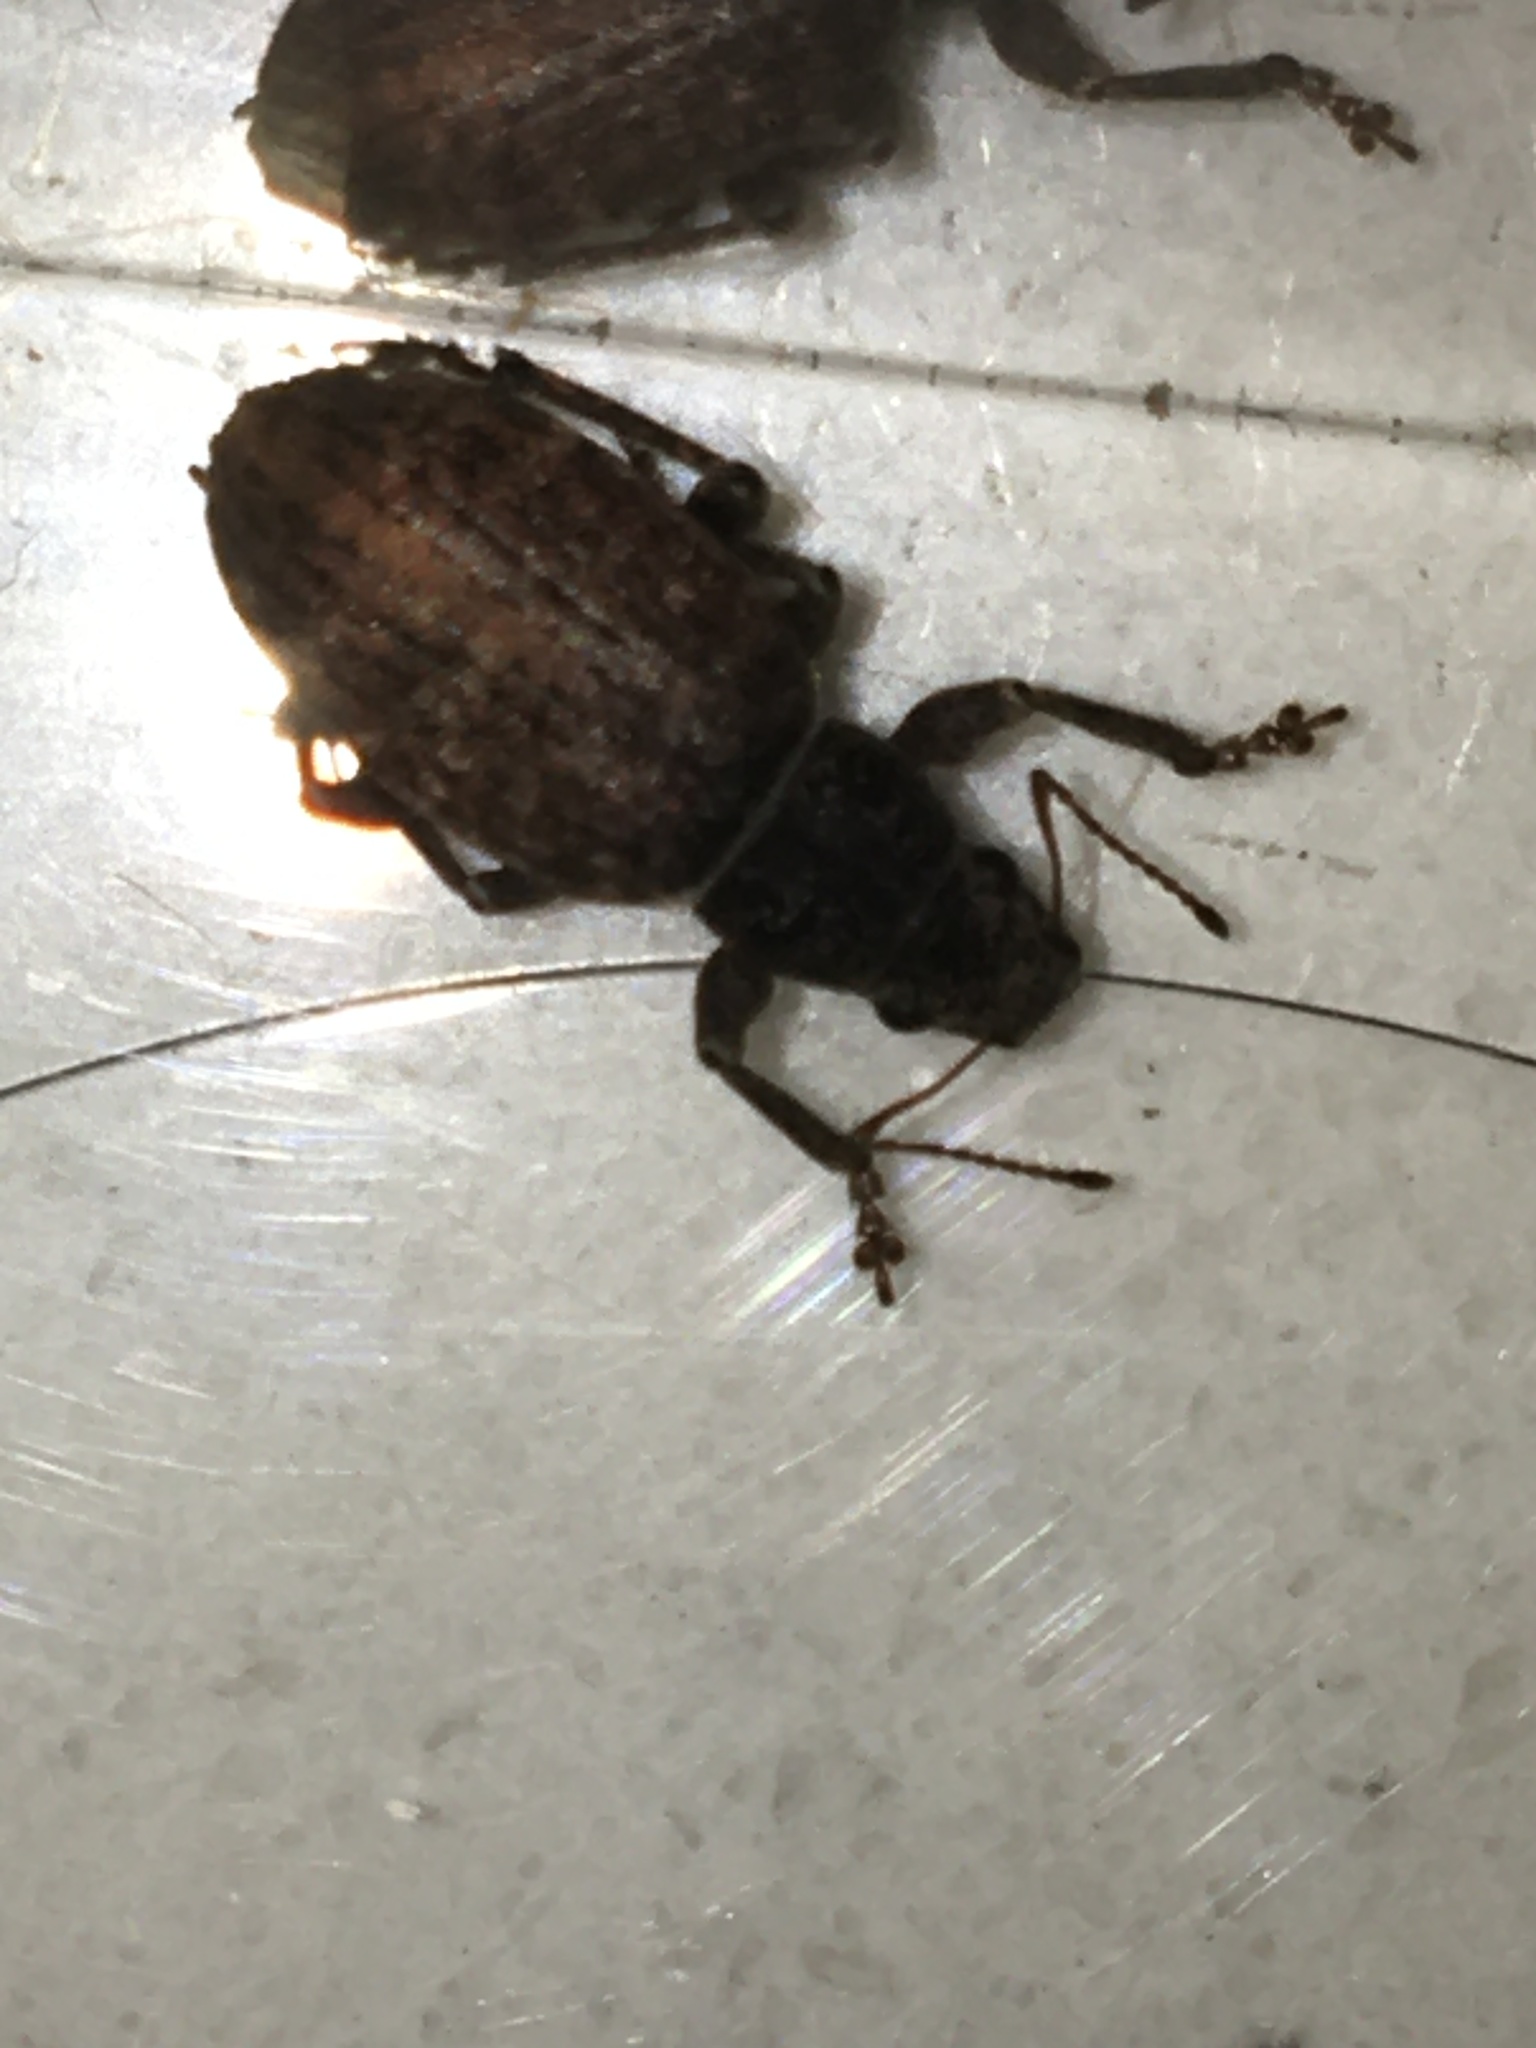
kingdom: Animalia
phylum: Arthropoda
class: Insecta
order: Coleoptera
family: Curculionidae
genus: Brachyderes
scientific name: Brachyderes incanus
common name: Weevil
